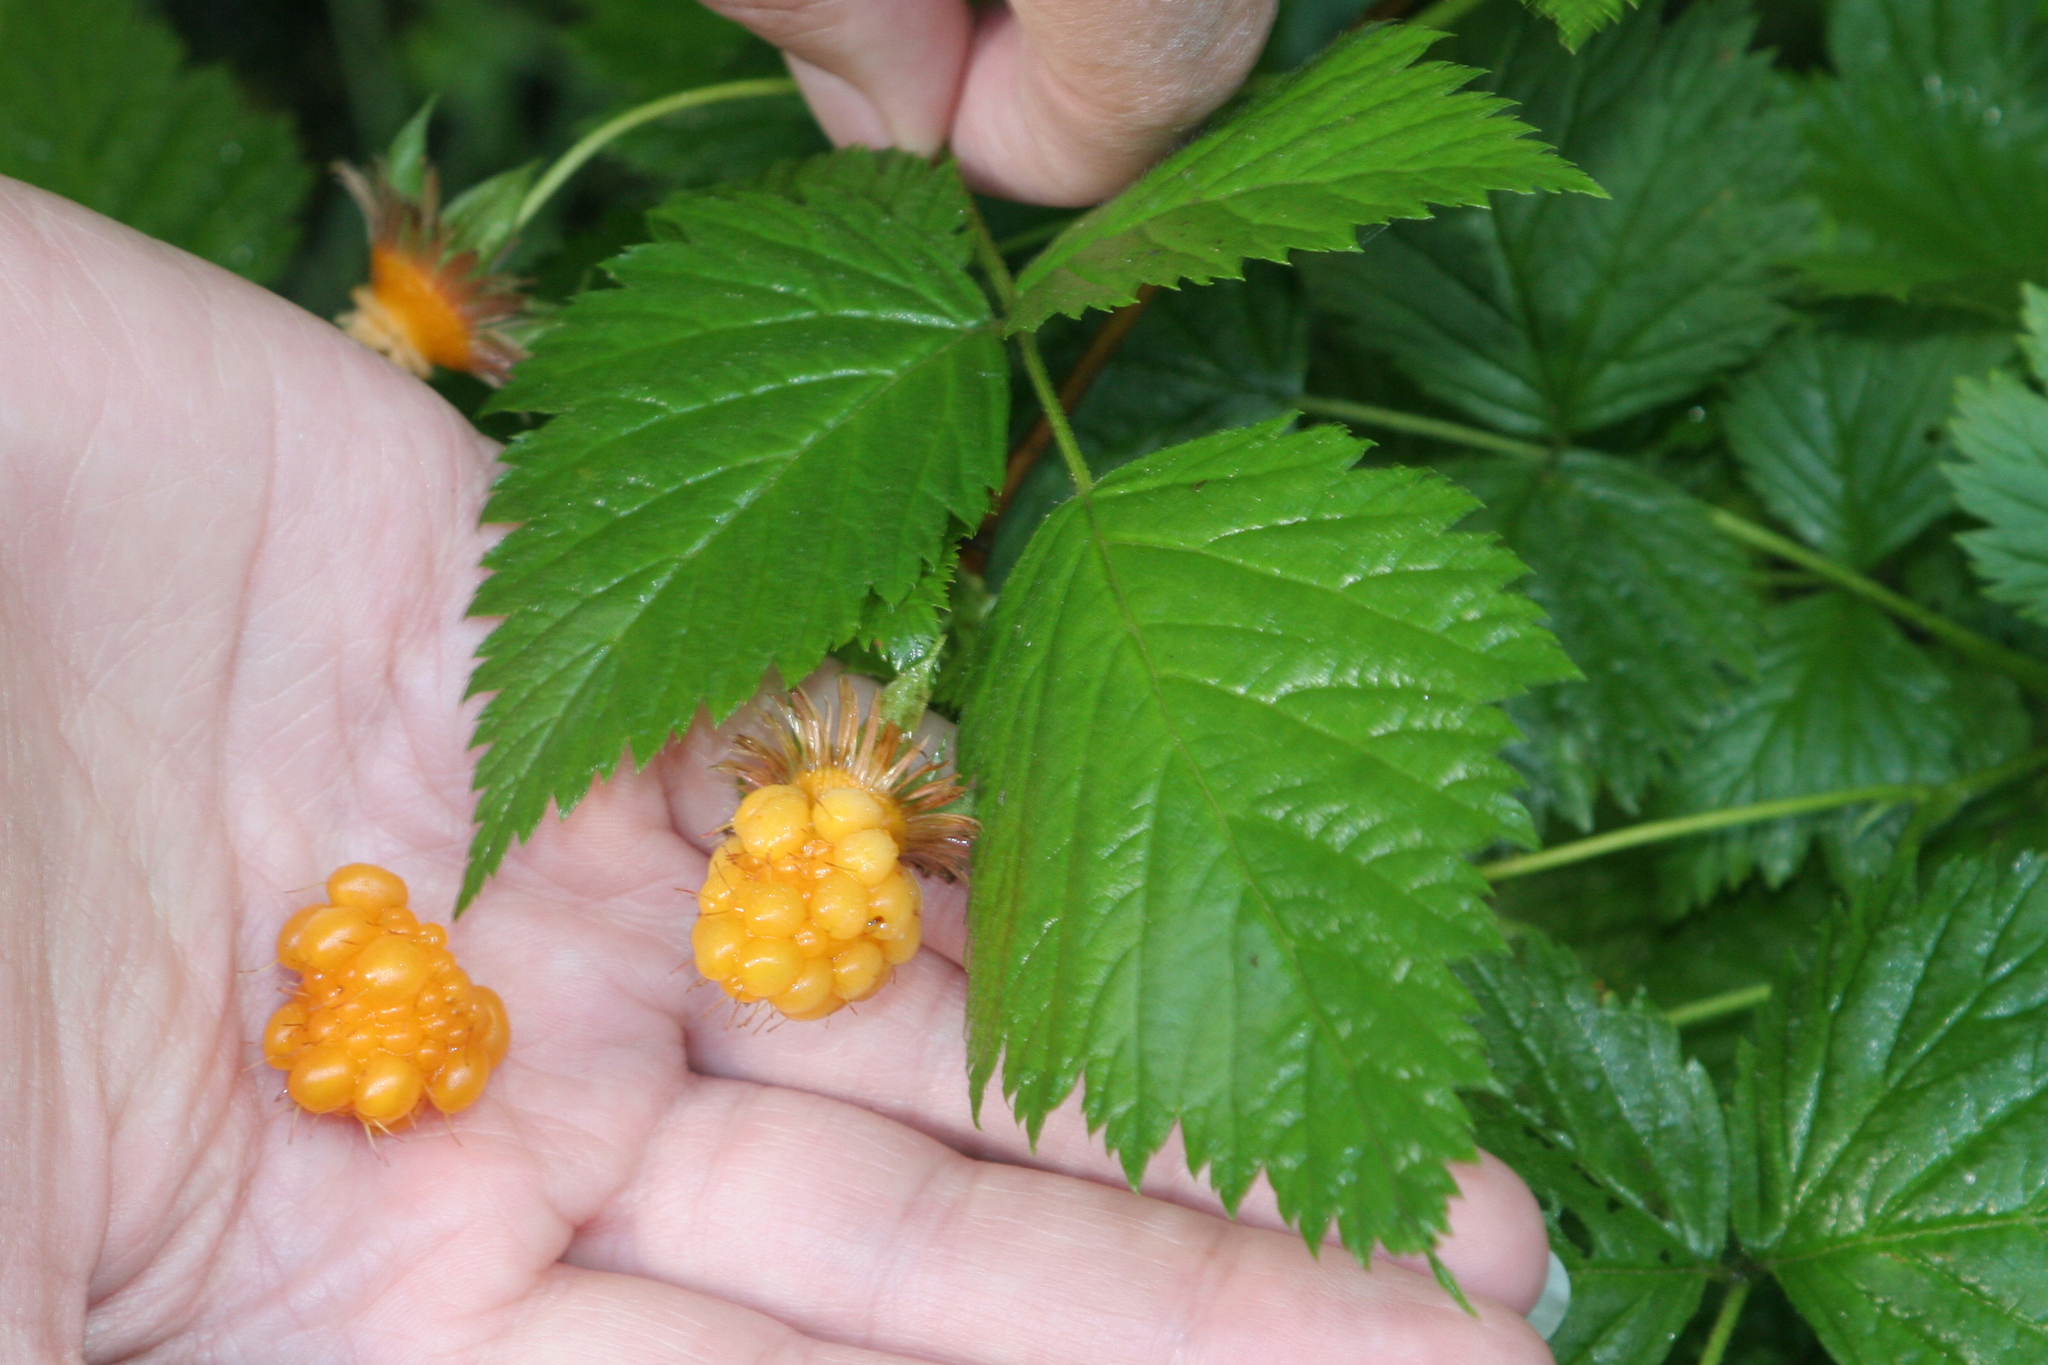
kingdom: Plantae
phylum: Tracheophyta
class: Magnoliopsida
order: Rosales
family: Rosaceae
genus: Rubus
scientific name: Rubus spectabilis
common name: Salmonberry
